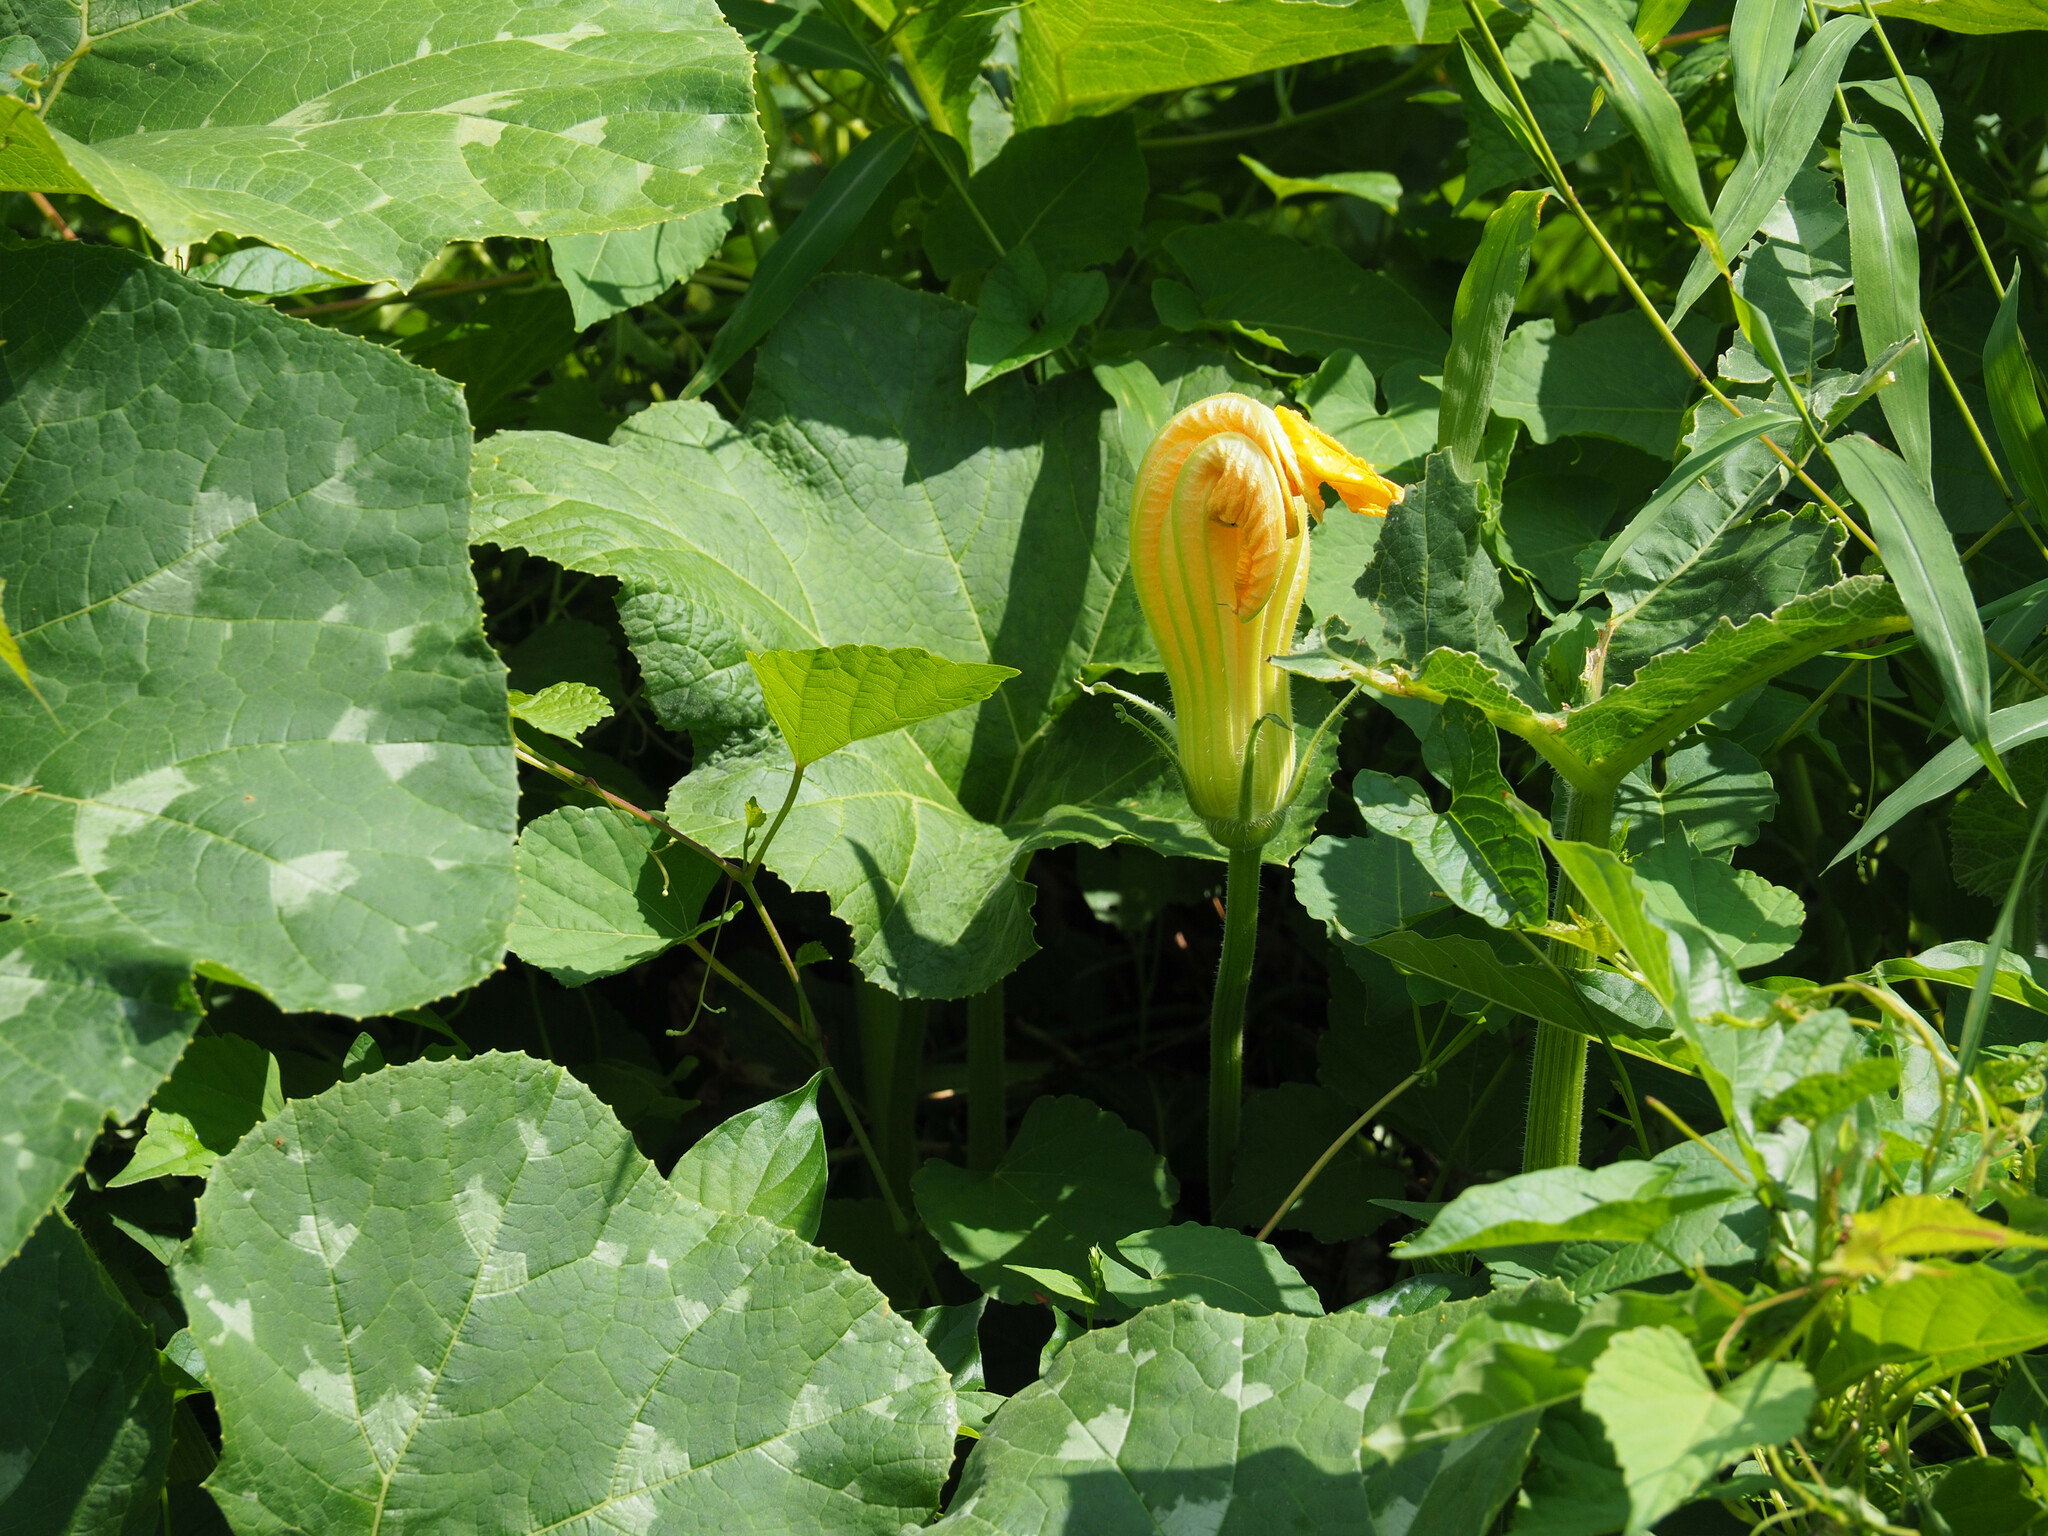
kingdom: Plantae
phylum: Tracheophyta
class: Magnoliopsida
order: Cucurbitales
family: Cucurbitaceae
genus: Cucurbita
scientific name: Cucurbita moschata
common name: Squash / pumpkin
